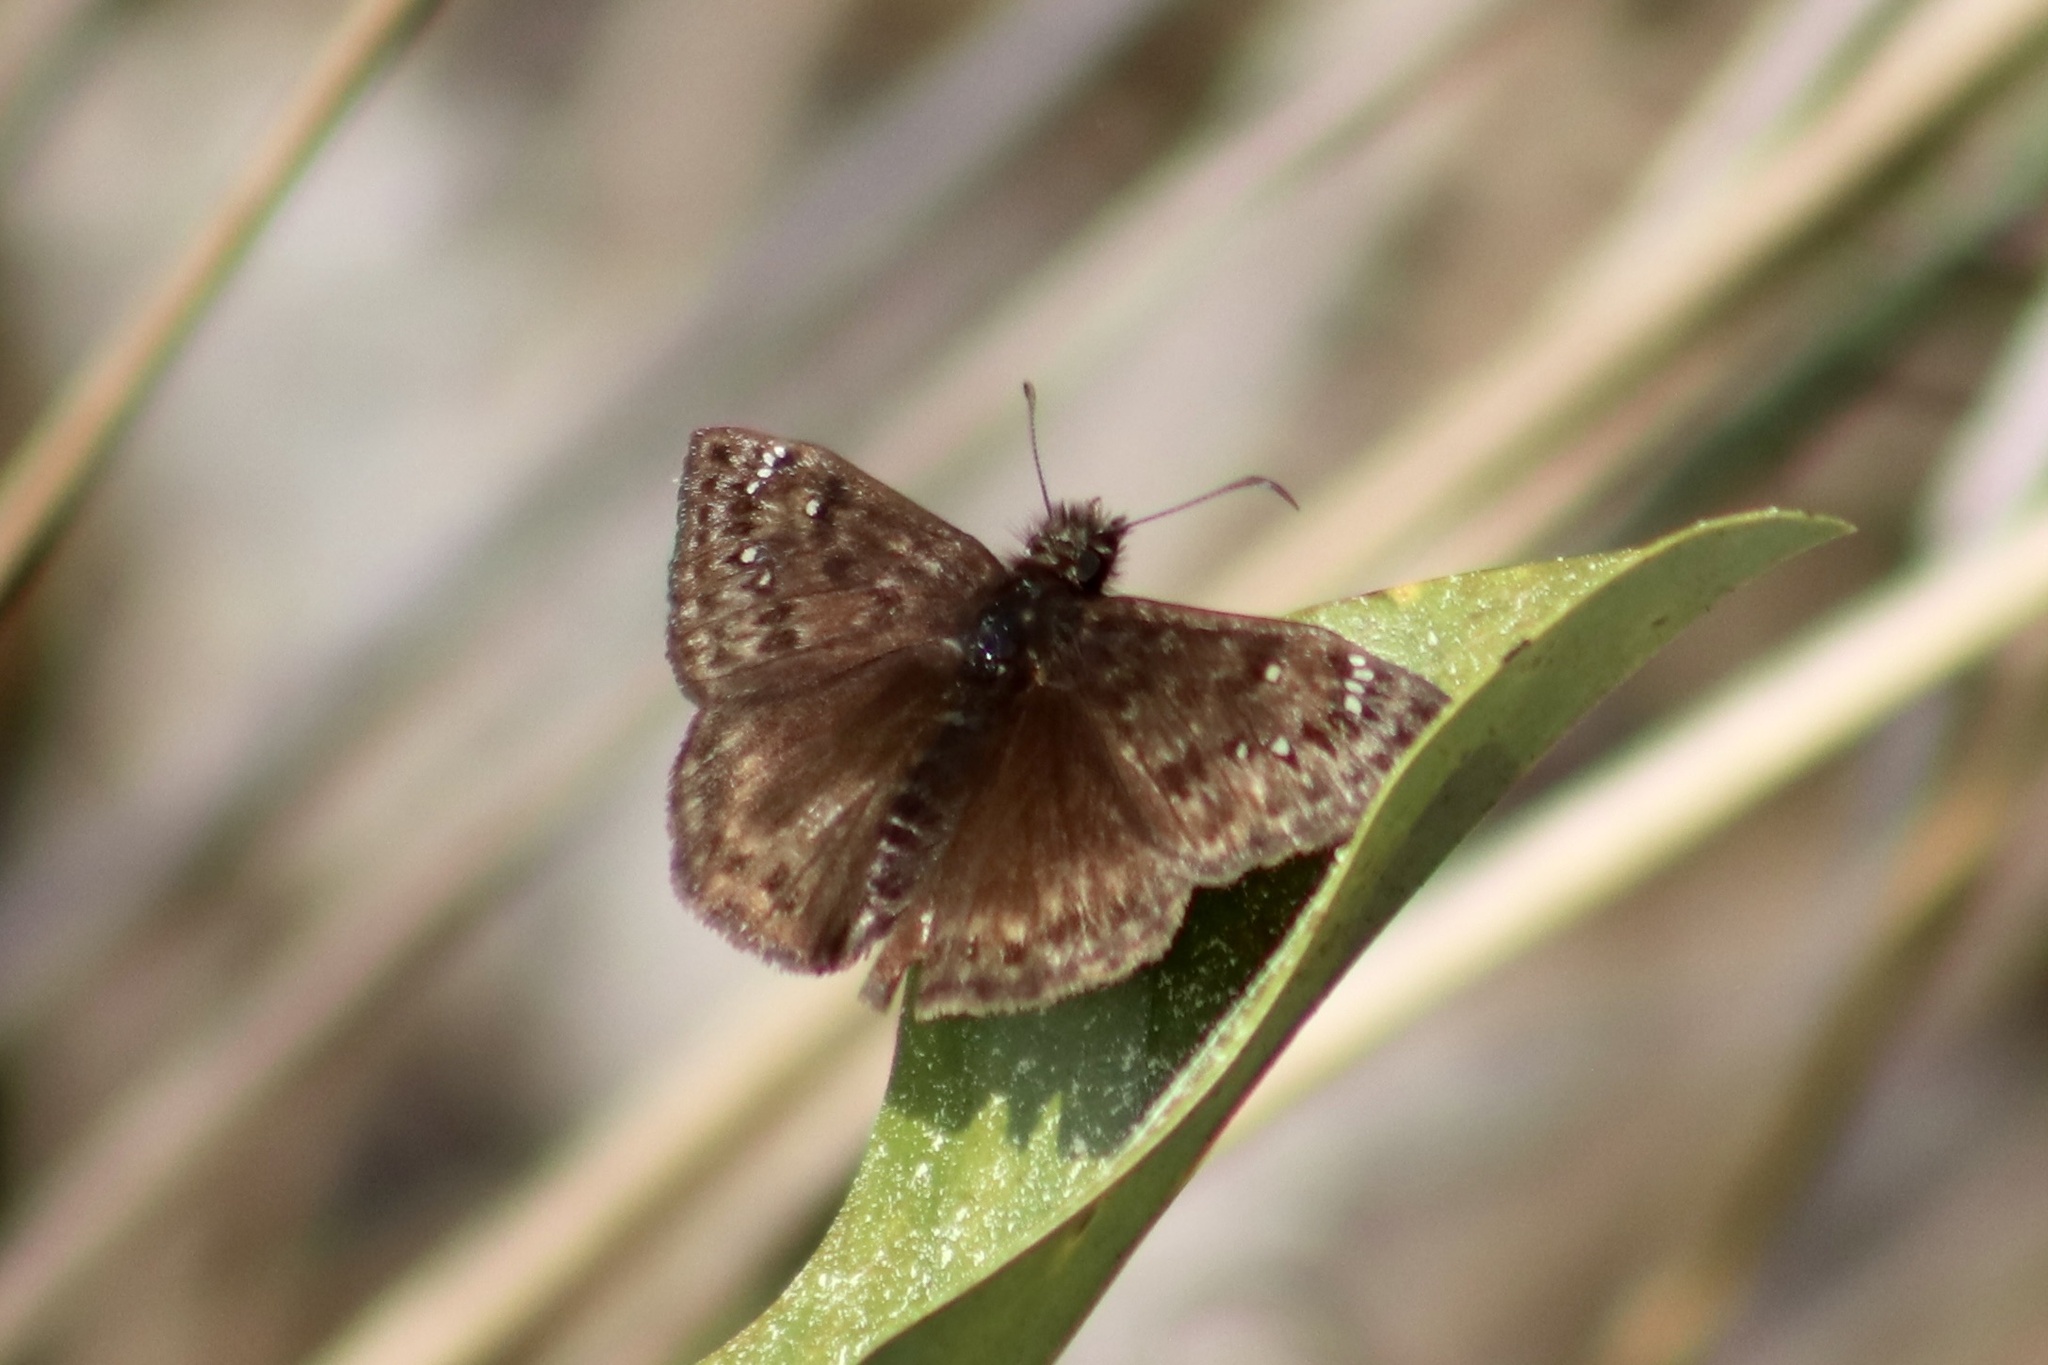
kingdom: Animalia
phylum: Arthropoda
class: Insecta
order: Lepidoptera
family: Hesperiidae
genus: Erynnis
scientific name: Erynnis horatius
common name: Horace's duskywing
